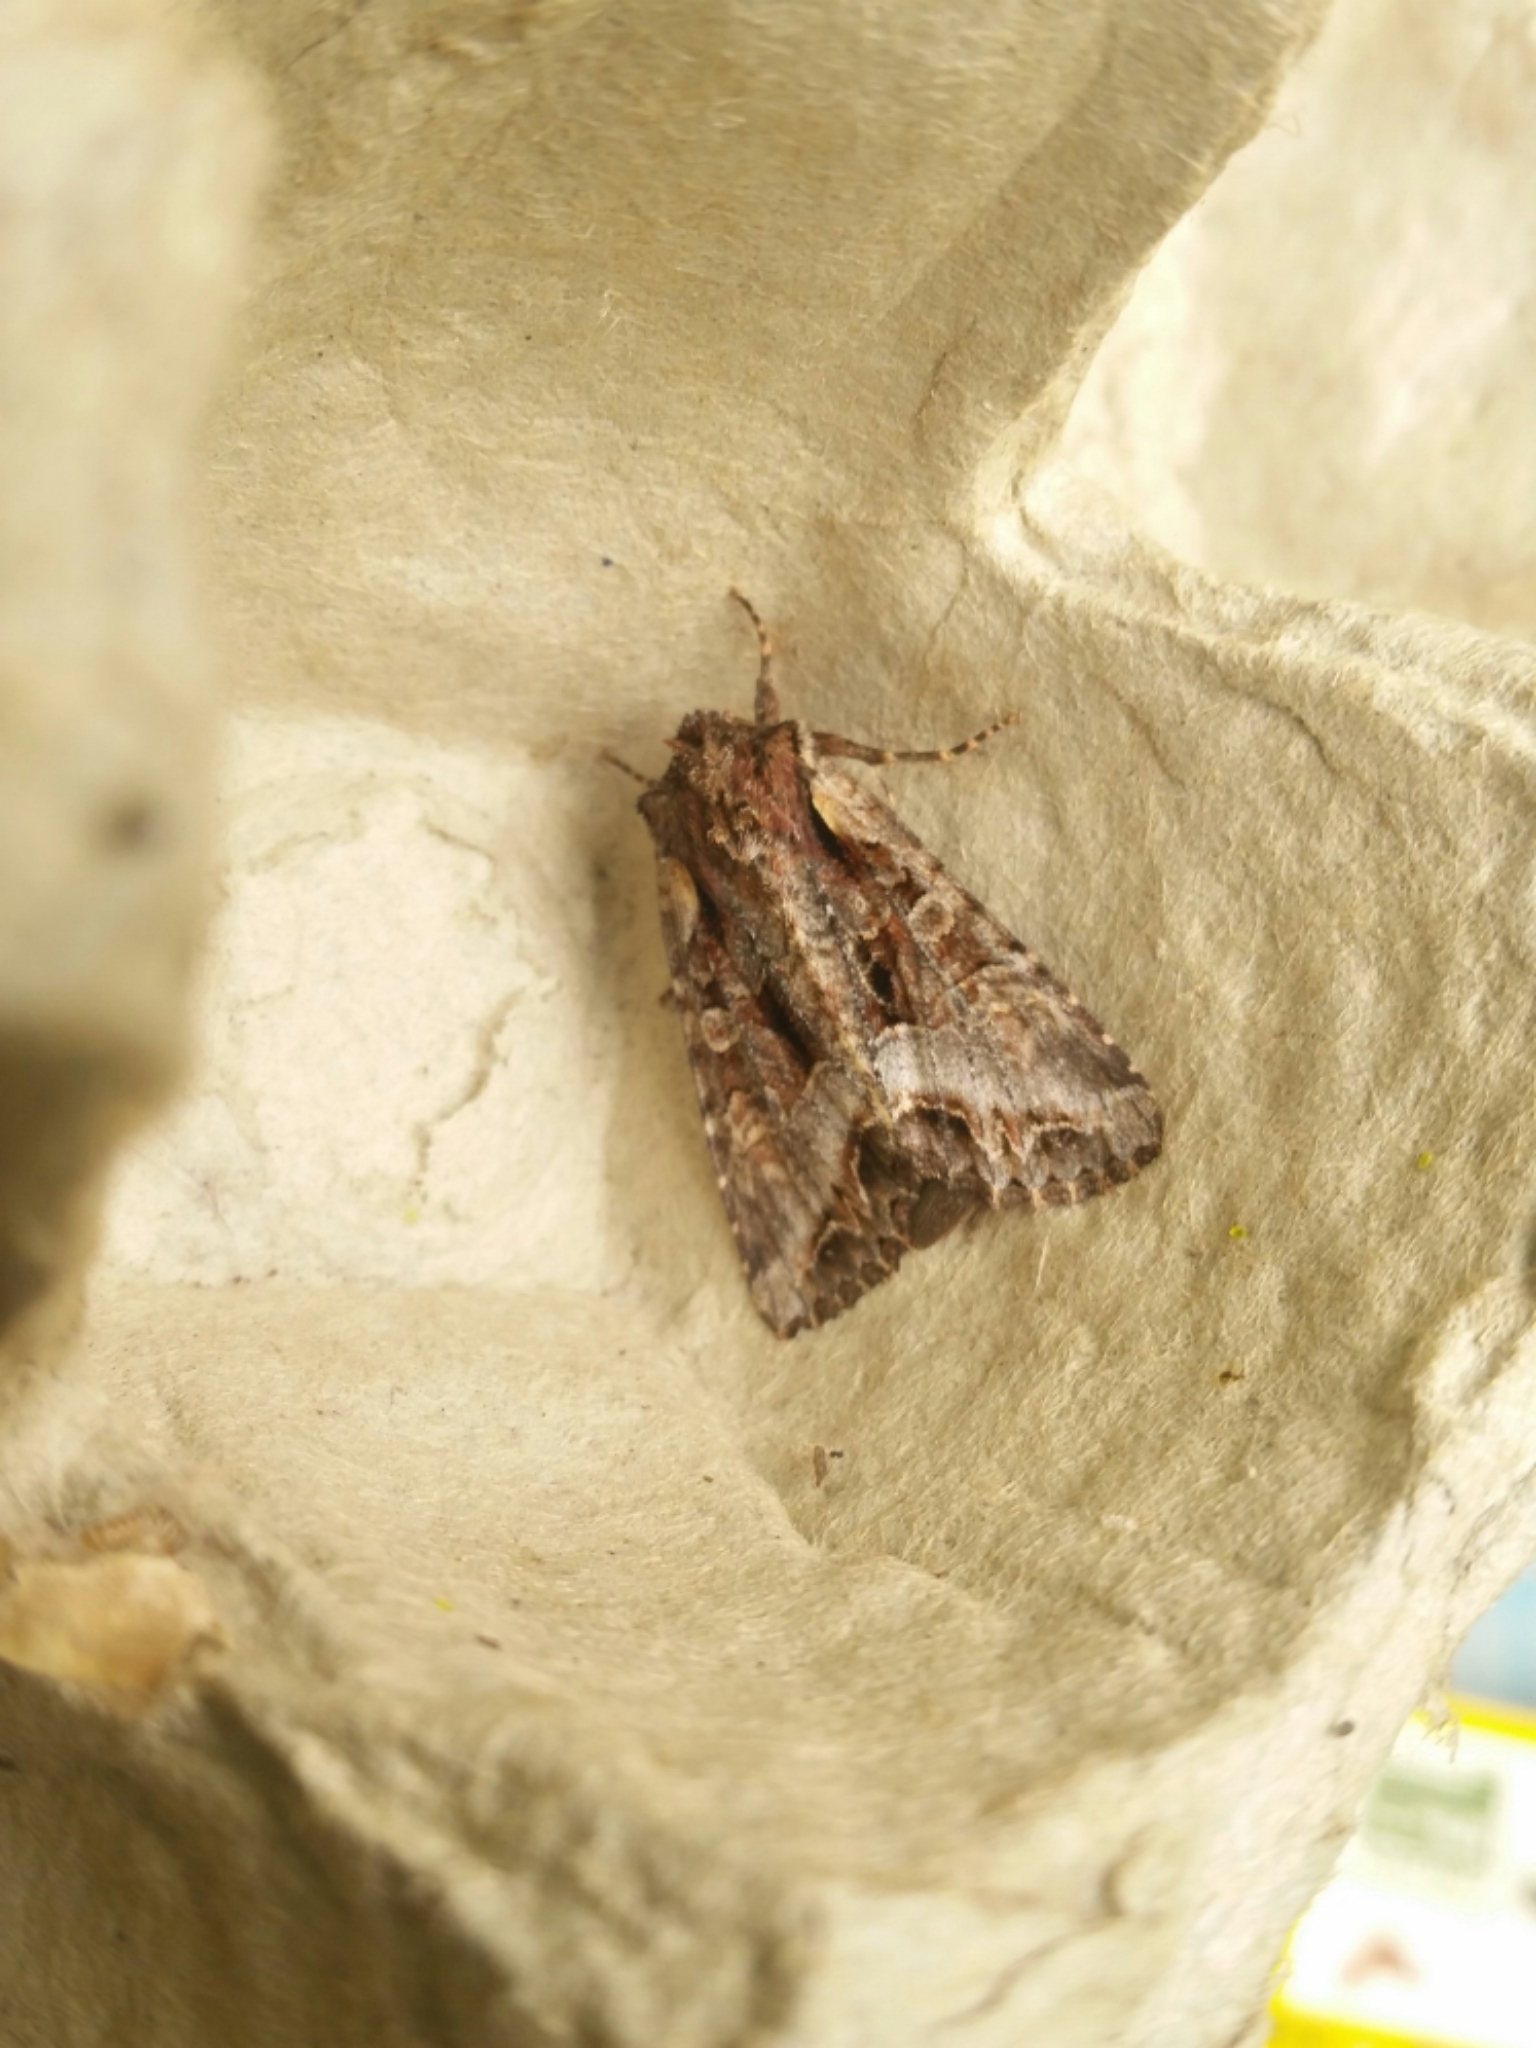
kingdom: Animalia
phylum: Arthropoda
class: Insecta
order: Lepidoptera
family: Noctuidae
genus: Lacanobia
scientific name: Lacanobia grandis
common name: Grand arches moth
